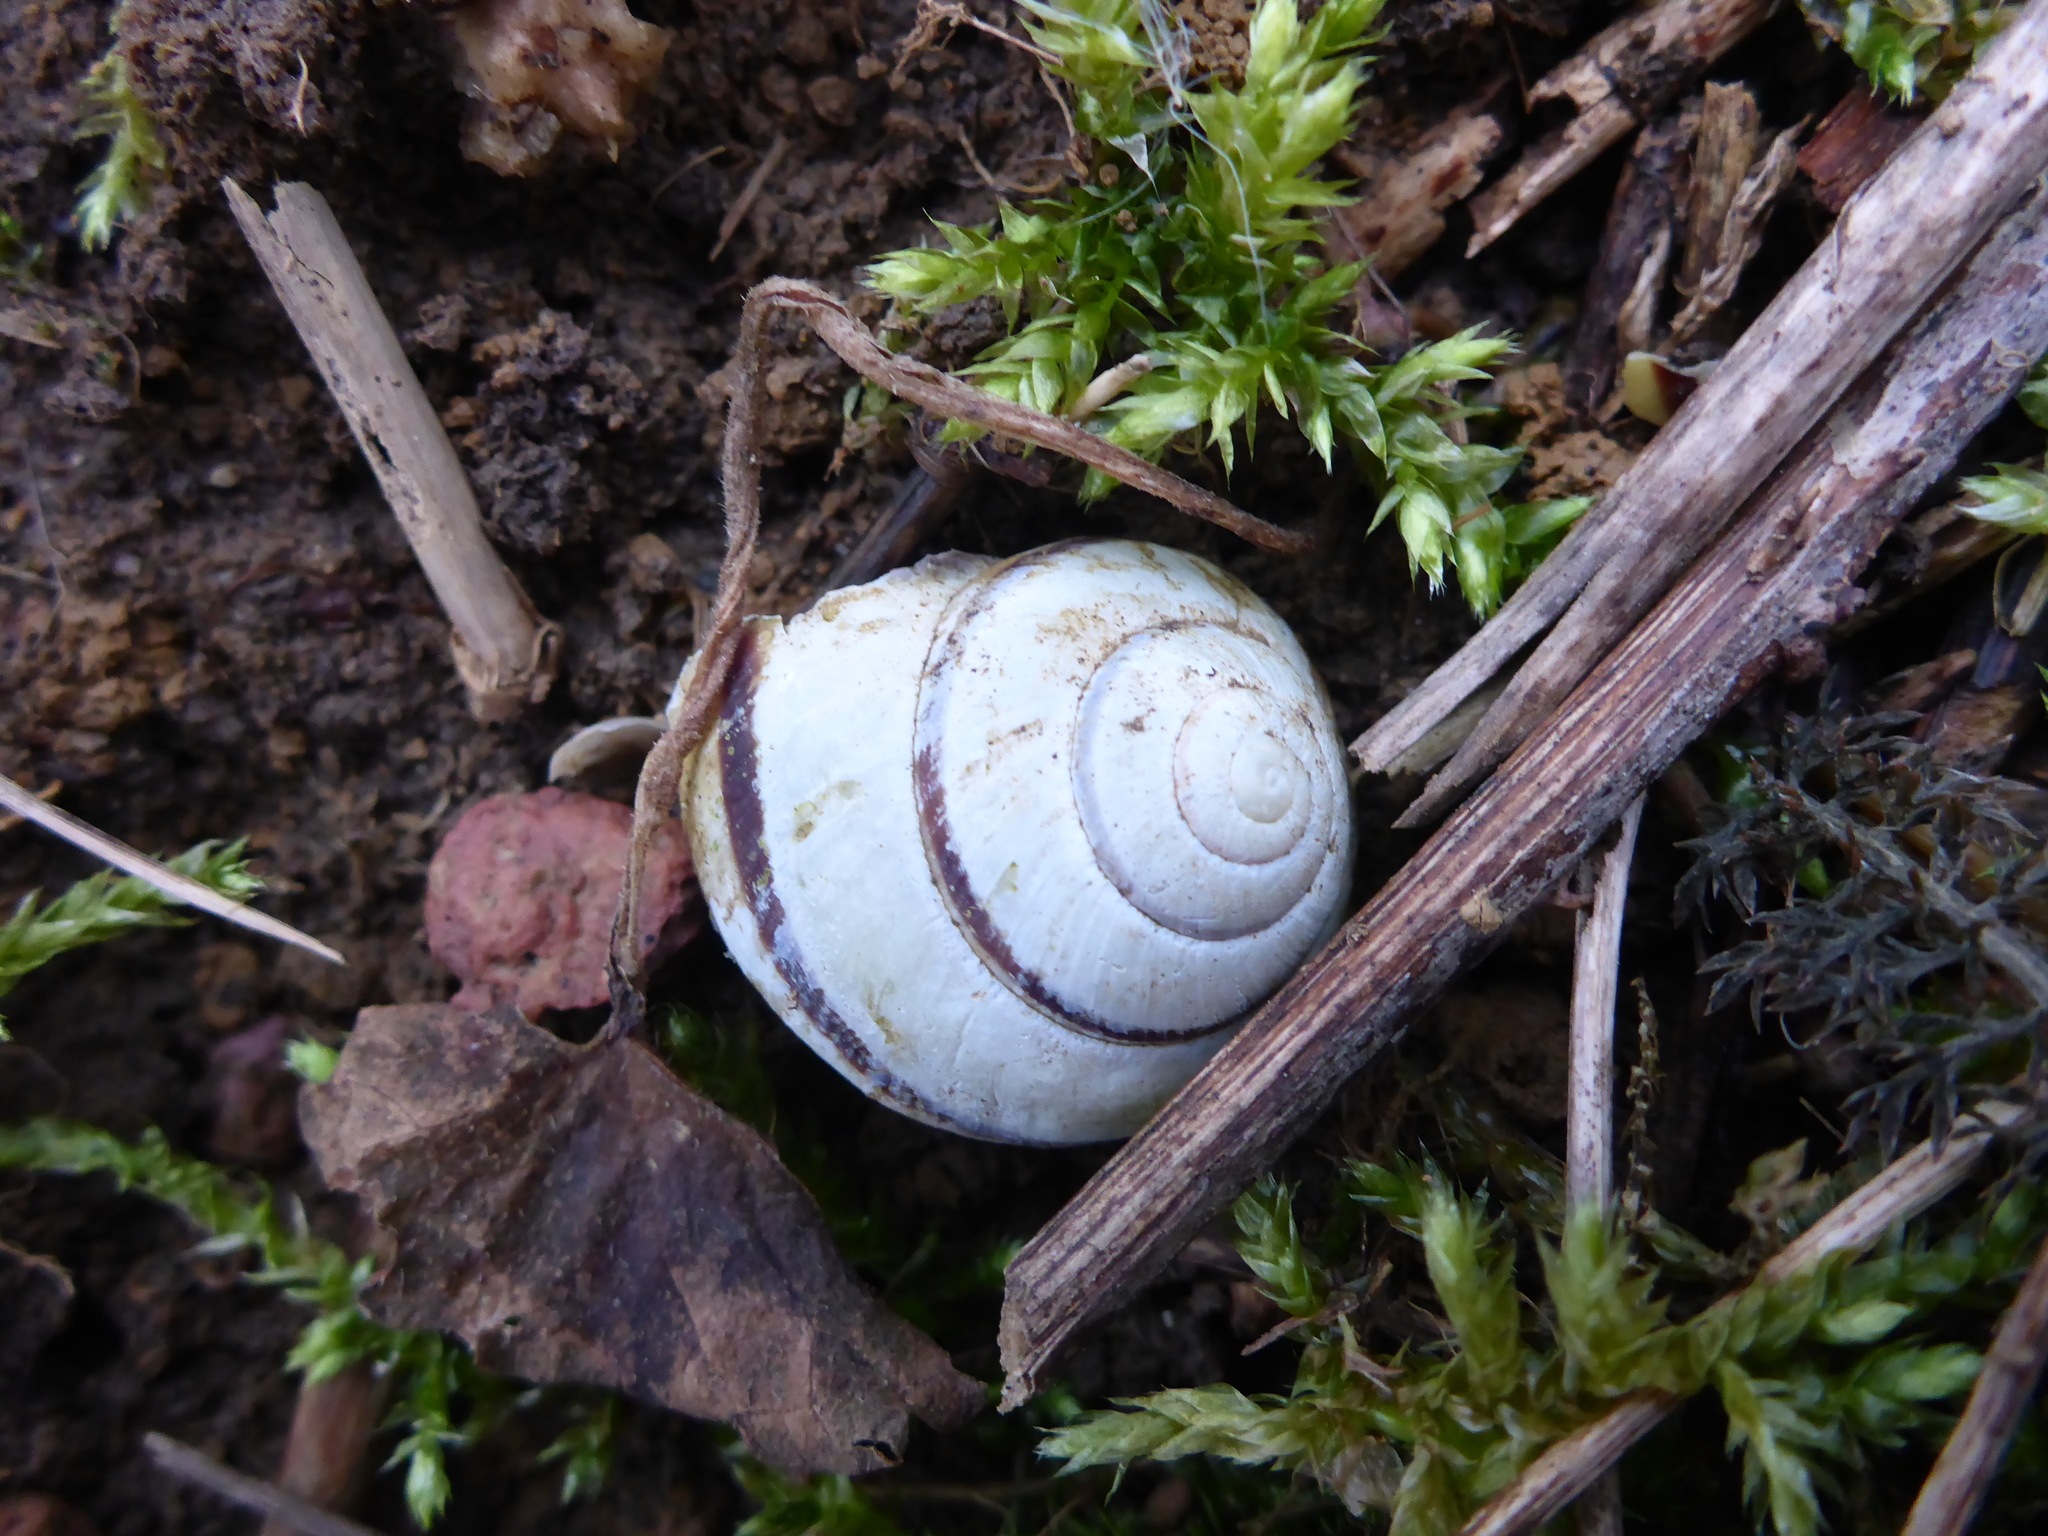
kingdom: Animalia
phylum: Mollusca
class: Gastropoda
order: Stylommatophora
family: Helicidae
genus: Cepaea
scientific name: Cepaea
